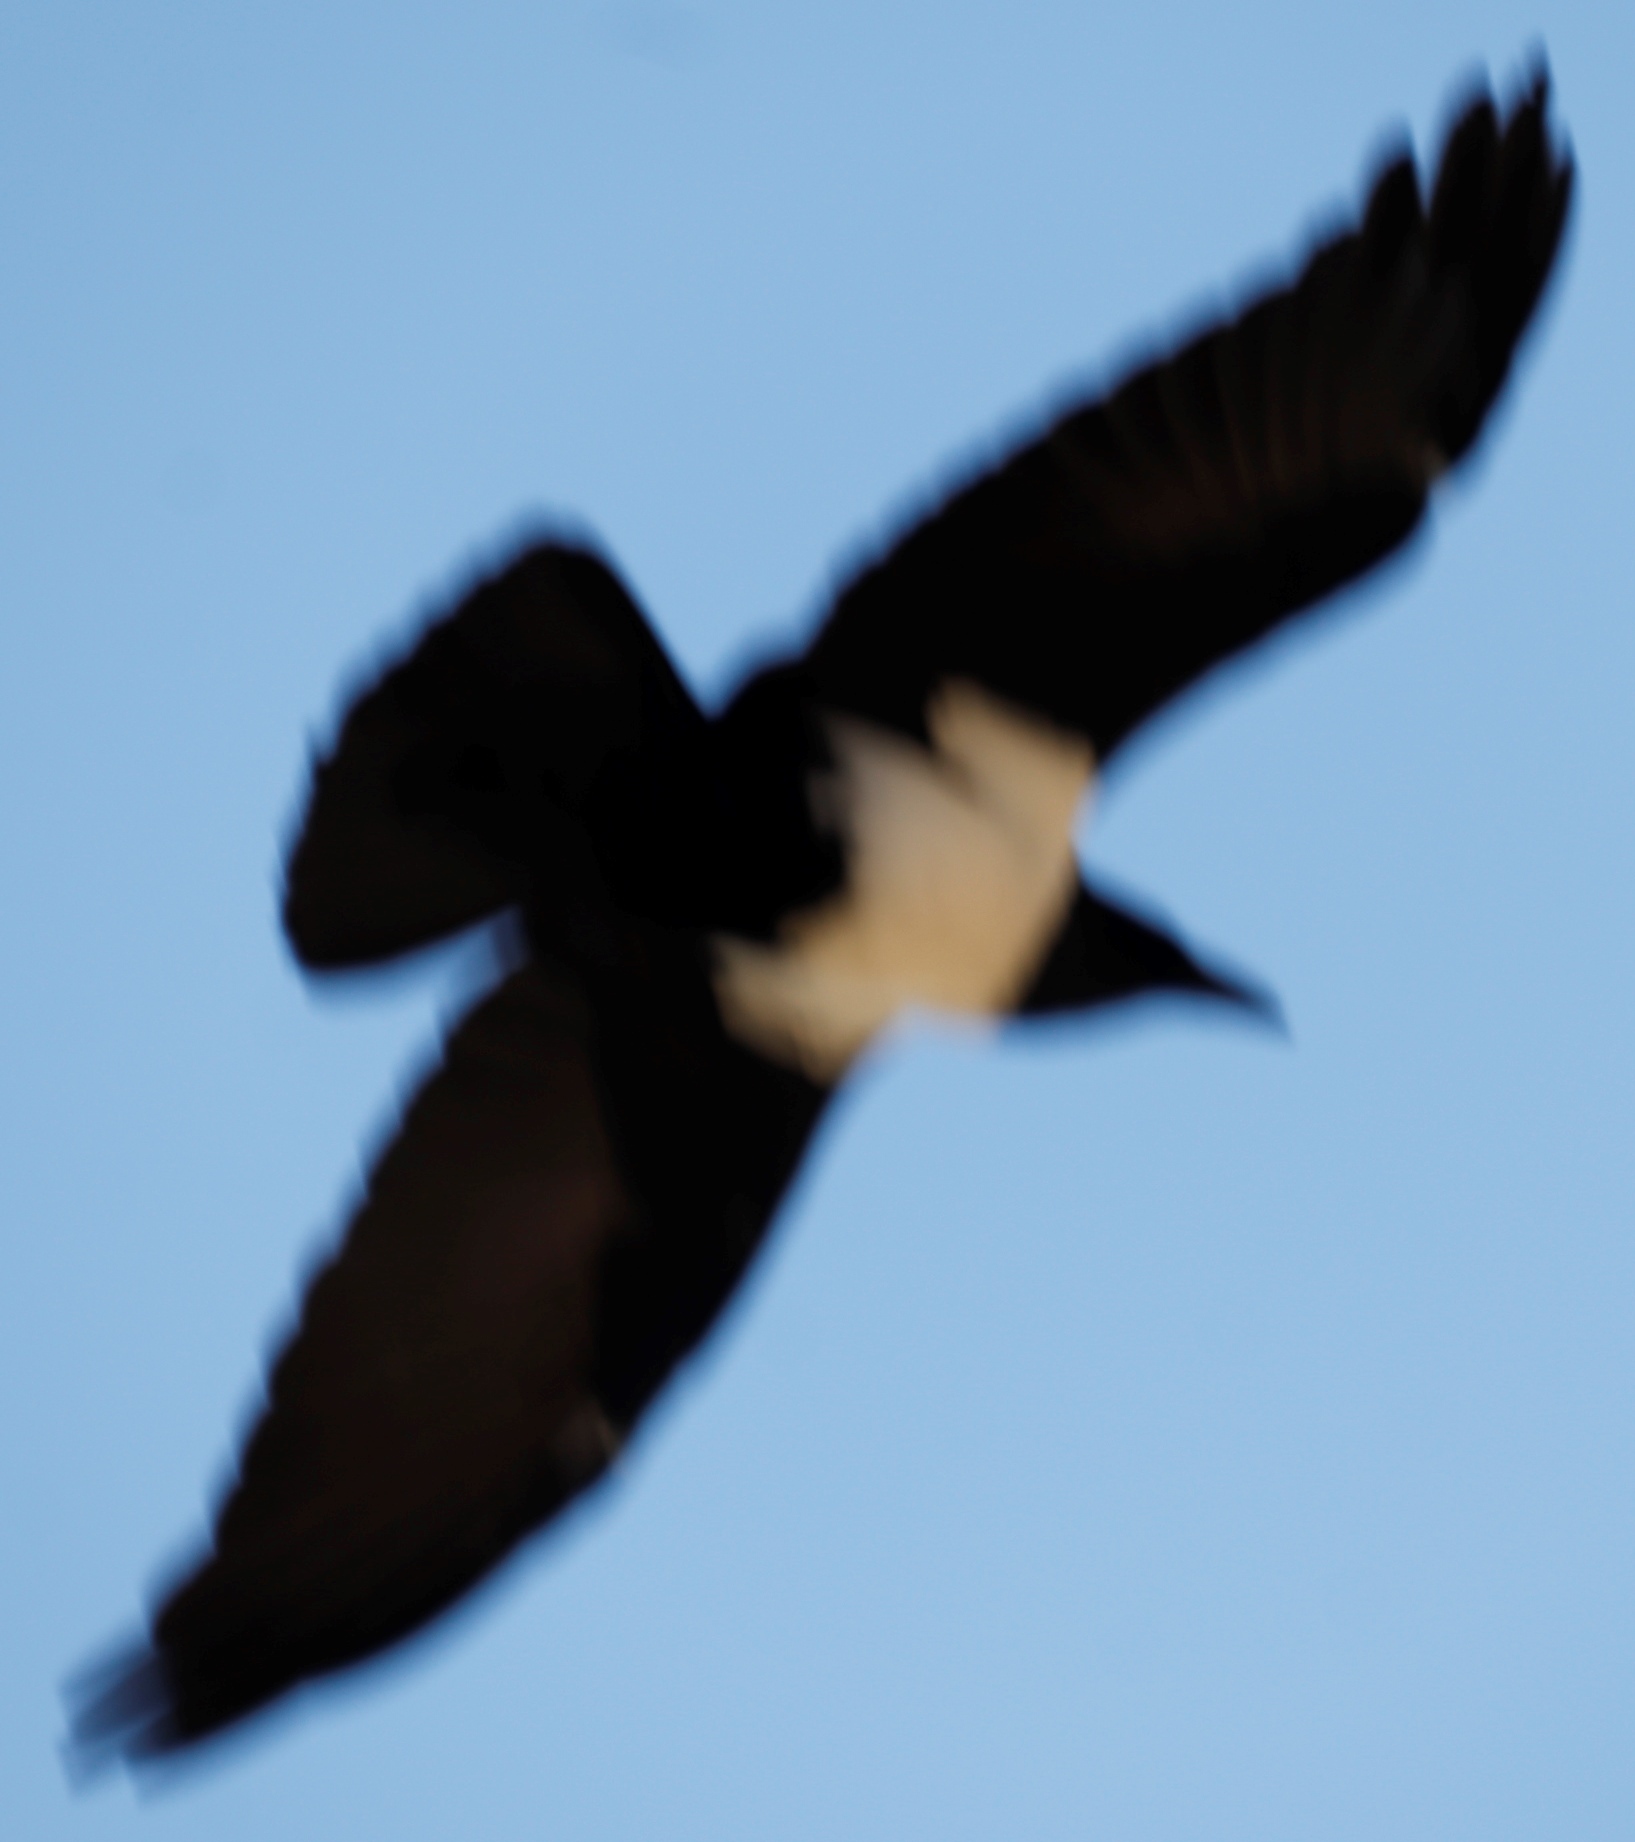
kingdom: Animalia
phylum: Chordata
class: Aves
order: Passeriformes
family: Corvidae
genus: Corvus
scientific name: Corvus albus
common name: Pied crow
